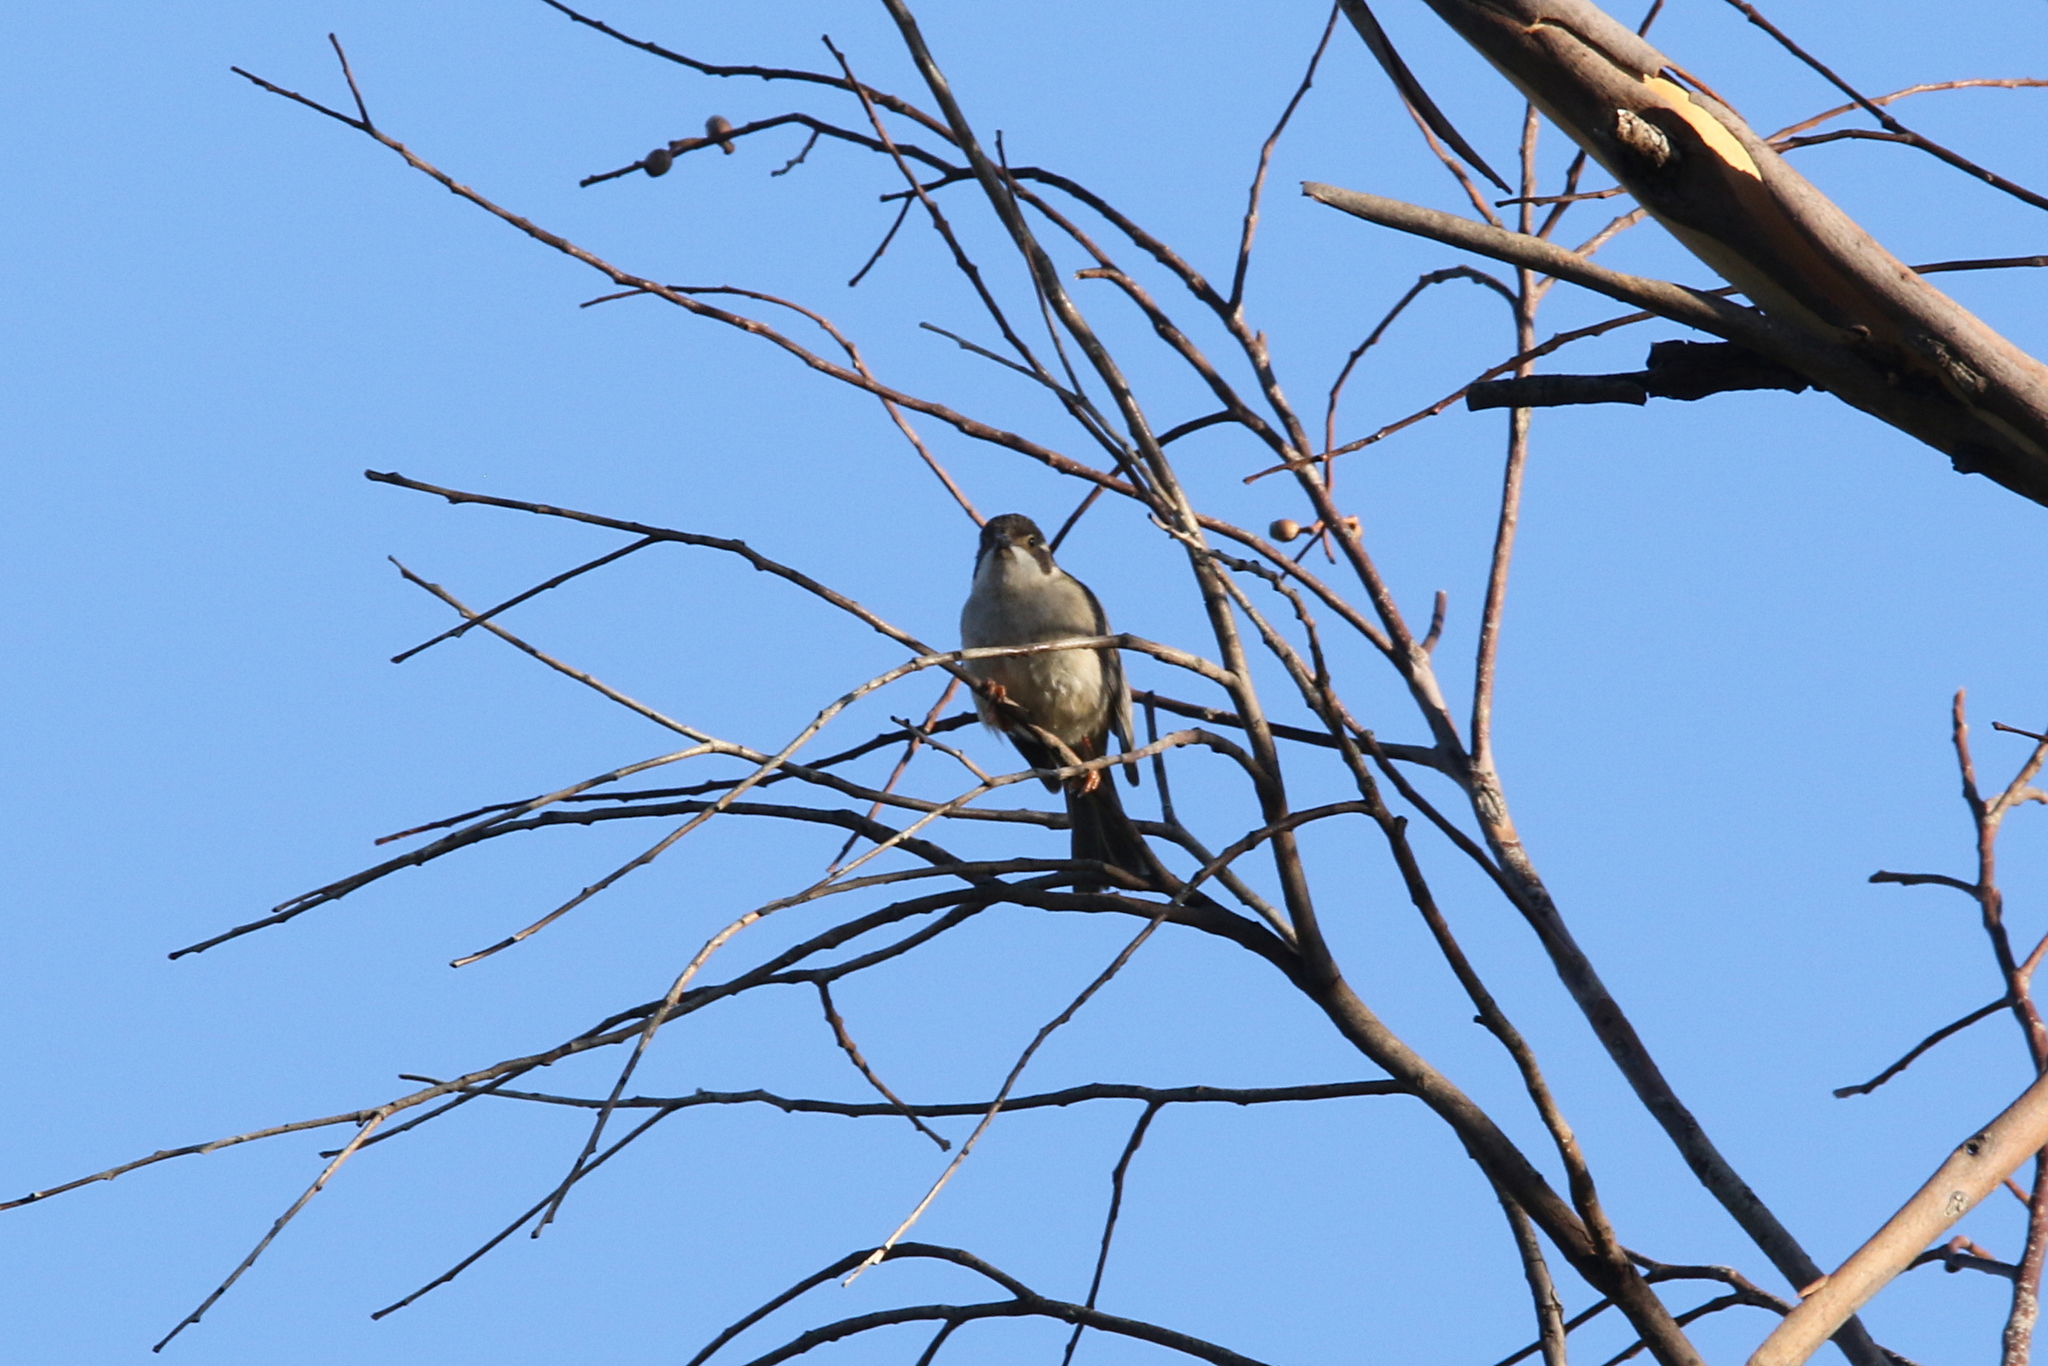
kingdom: Animalia
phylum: Chordata
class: Aves
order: Passeriformes
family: Meliphagidae
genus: Melithreptus
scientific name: Melithreptus brevirostris
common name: Brown-headed honeyeater
